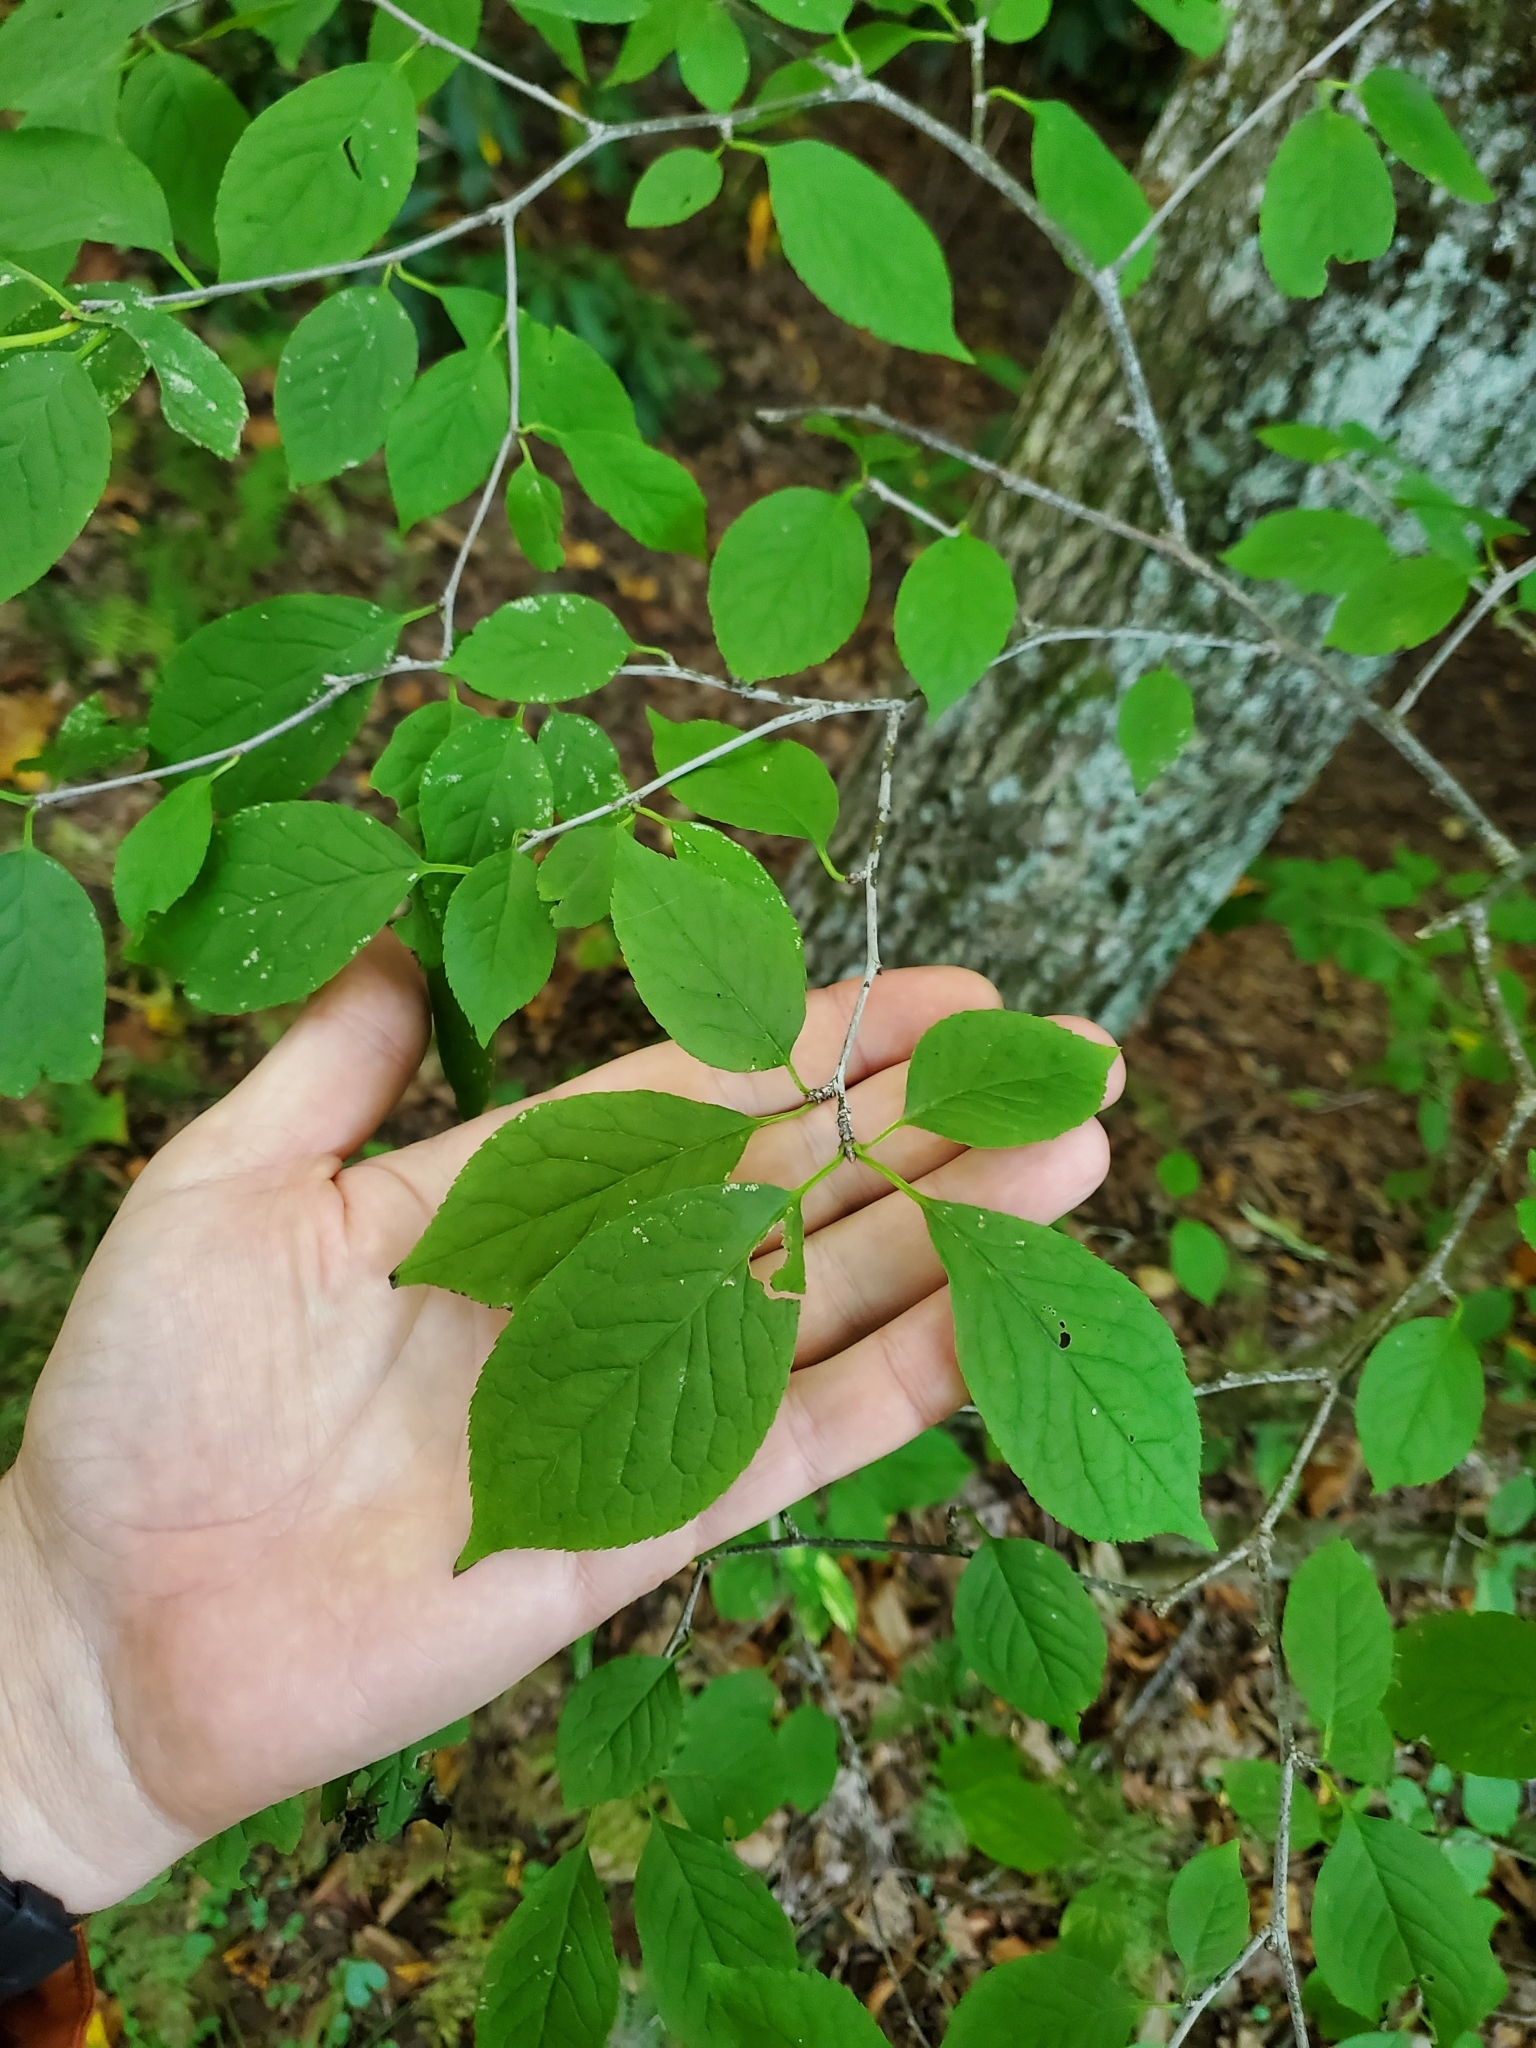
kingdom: Plantae
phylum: Tracheophyta
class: Magnoliopsida
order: Aquifoliales
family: Aquifoliaceae
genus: Ilex
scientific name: Ilex montana
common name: Mountain winterberry
